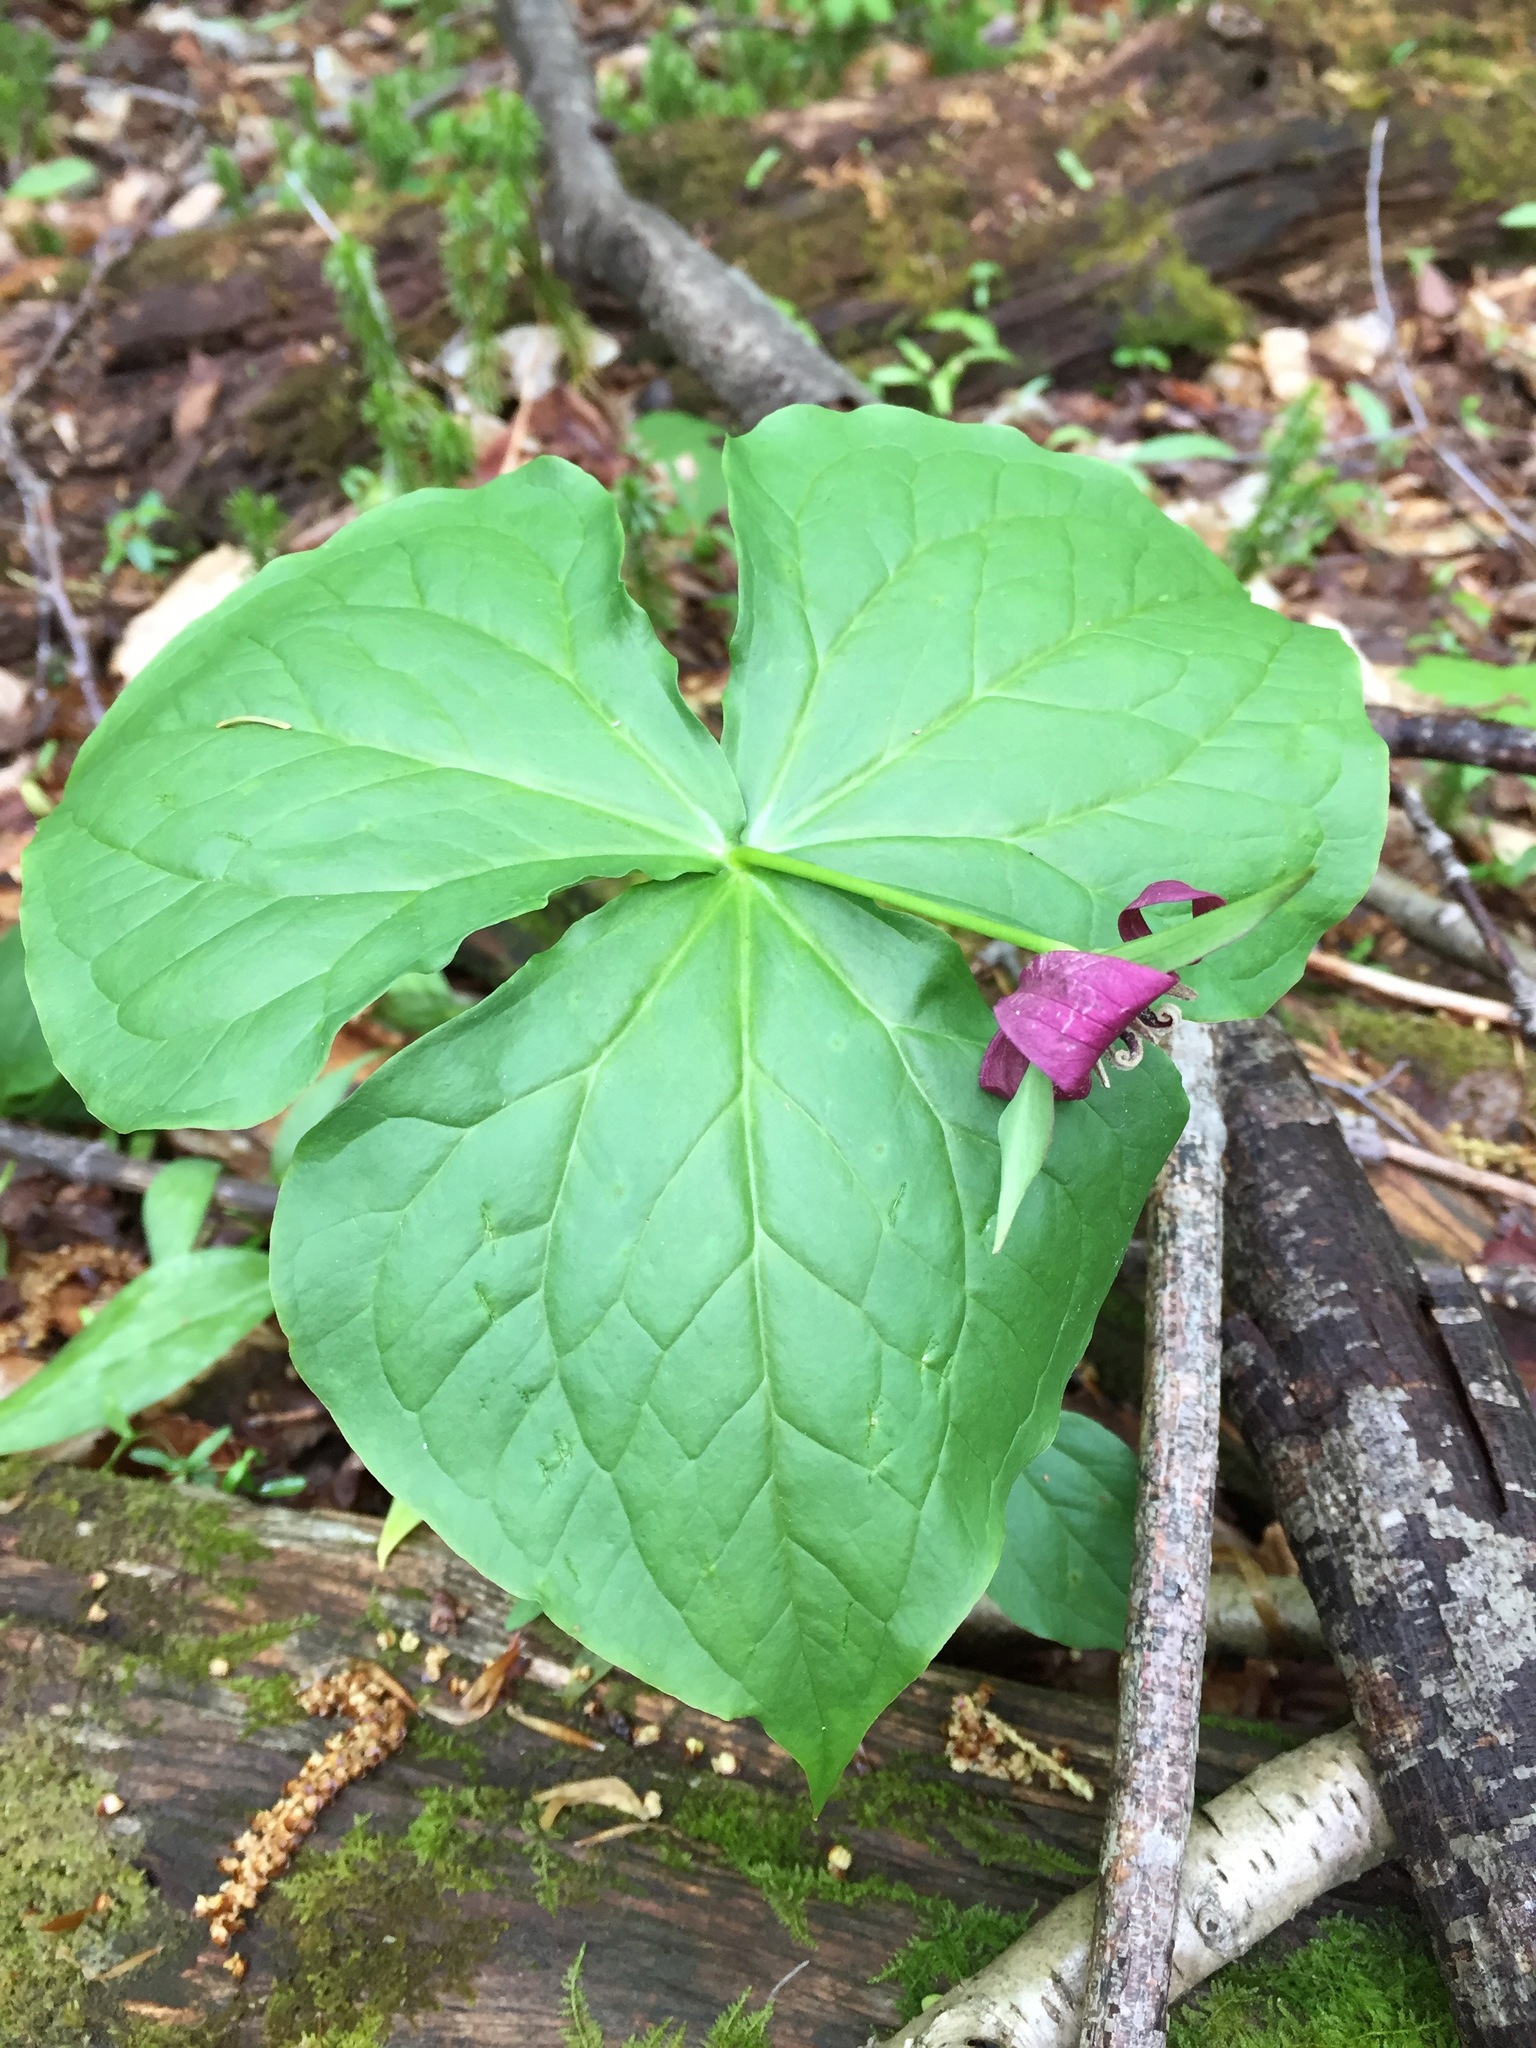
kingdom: Plantae
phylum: Tracheophyta
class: Liliopsida
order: Liliales
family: Melanthiaceae
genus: Trillium
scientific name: Trillium erectum
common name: Purple trillium
